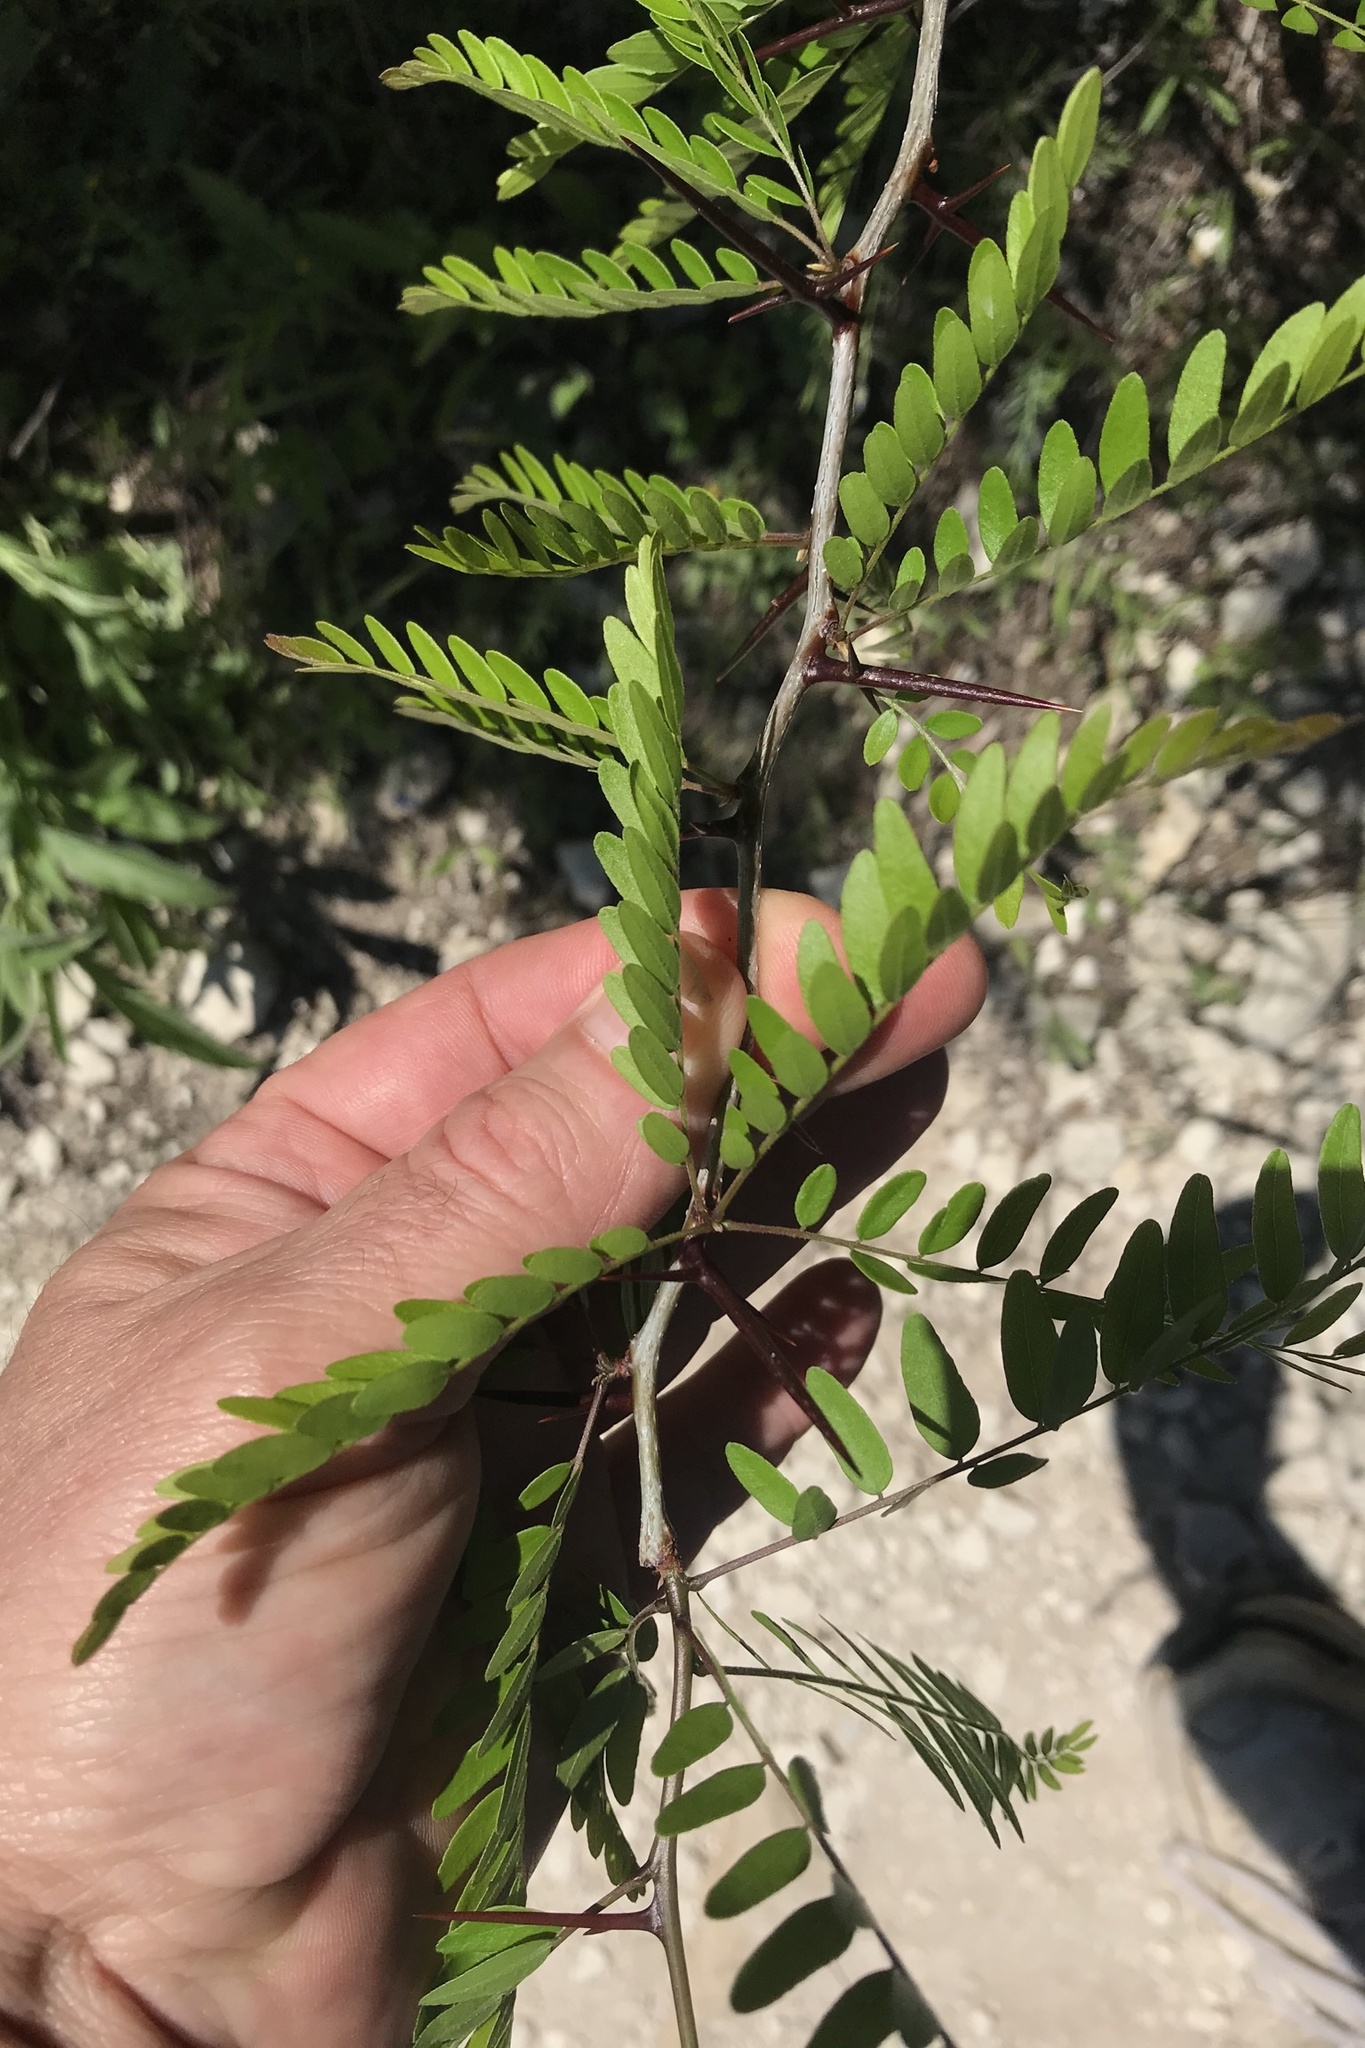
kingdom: Plantae
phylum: Tracheophyta
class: Magnoliopsida
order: Fabales
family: Fabaceae
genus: Gleditsia
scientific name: Gleditsia triacanthos
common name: Common honeylocust
